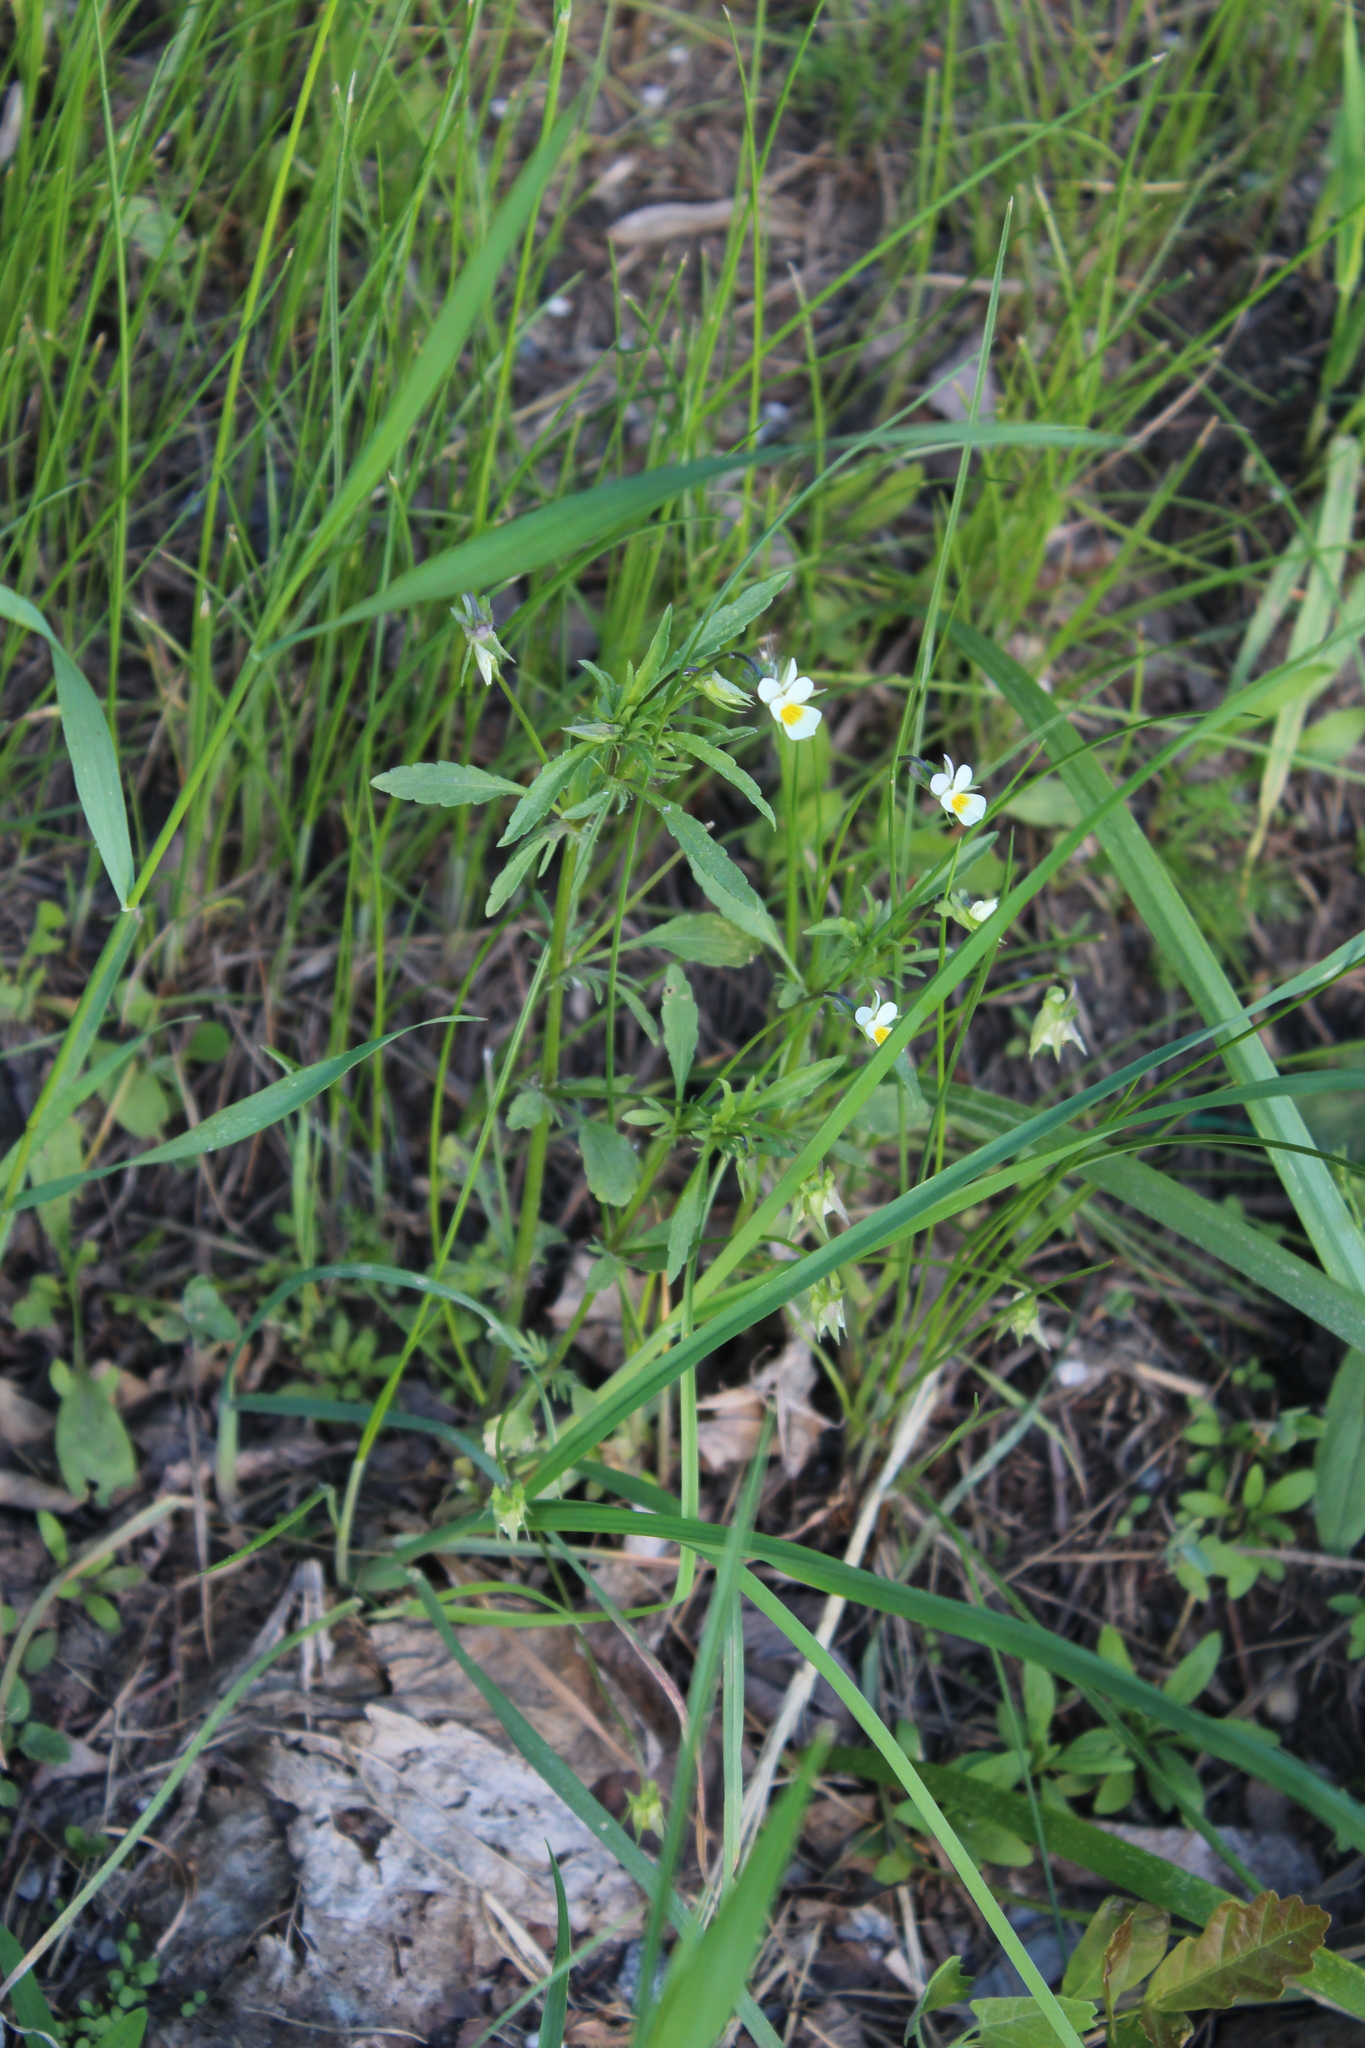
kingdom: Plantae
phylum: Tracheophyta
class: Magnoliopsida
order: Malpighiales
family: Violaceae
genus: Viola
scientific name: Viola arvensis
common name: Field pansy
